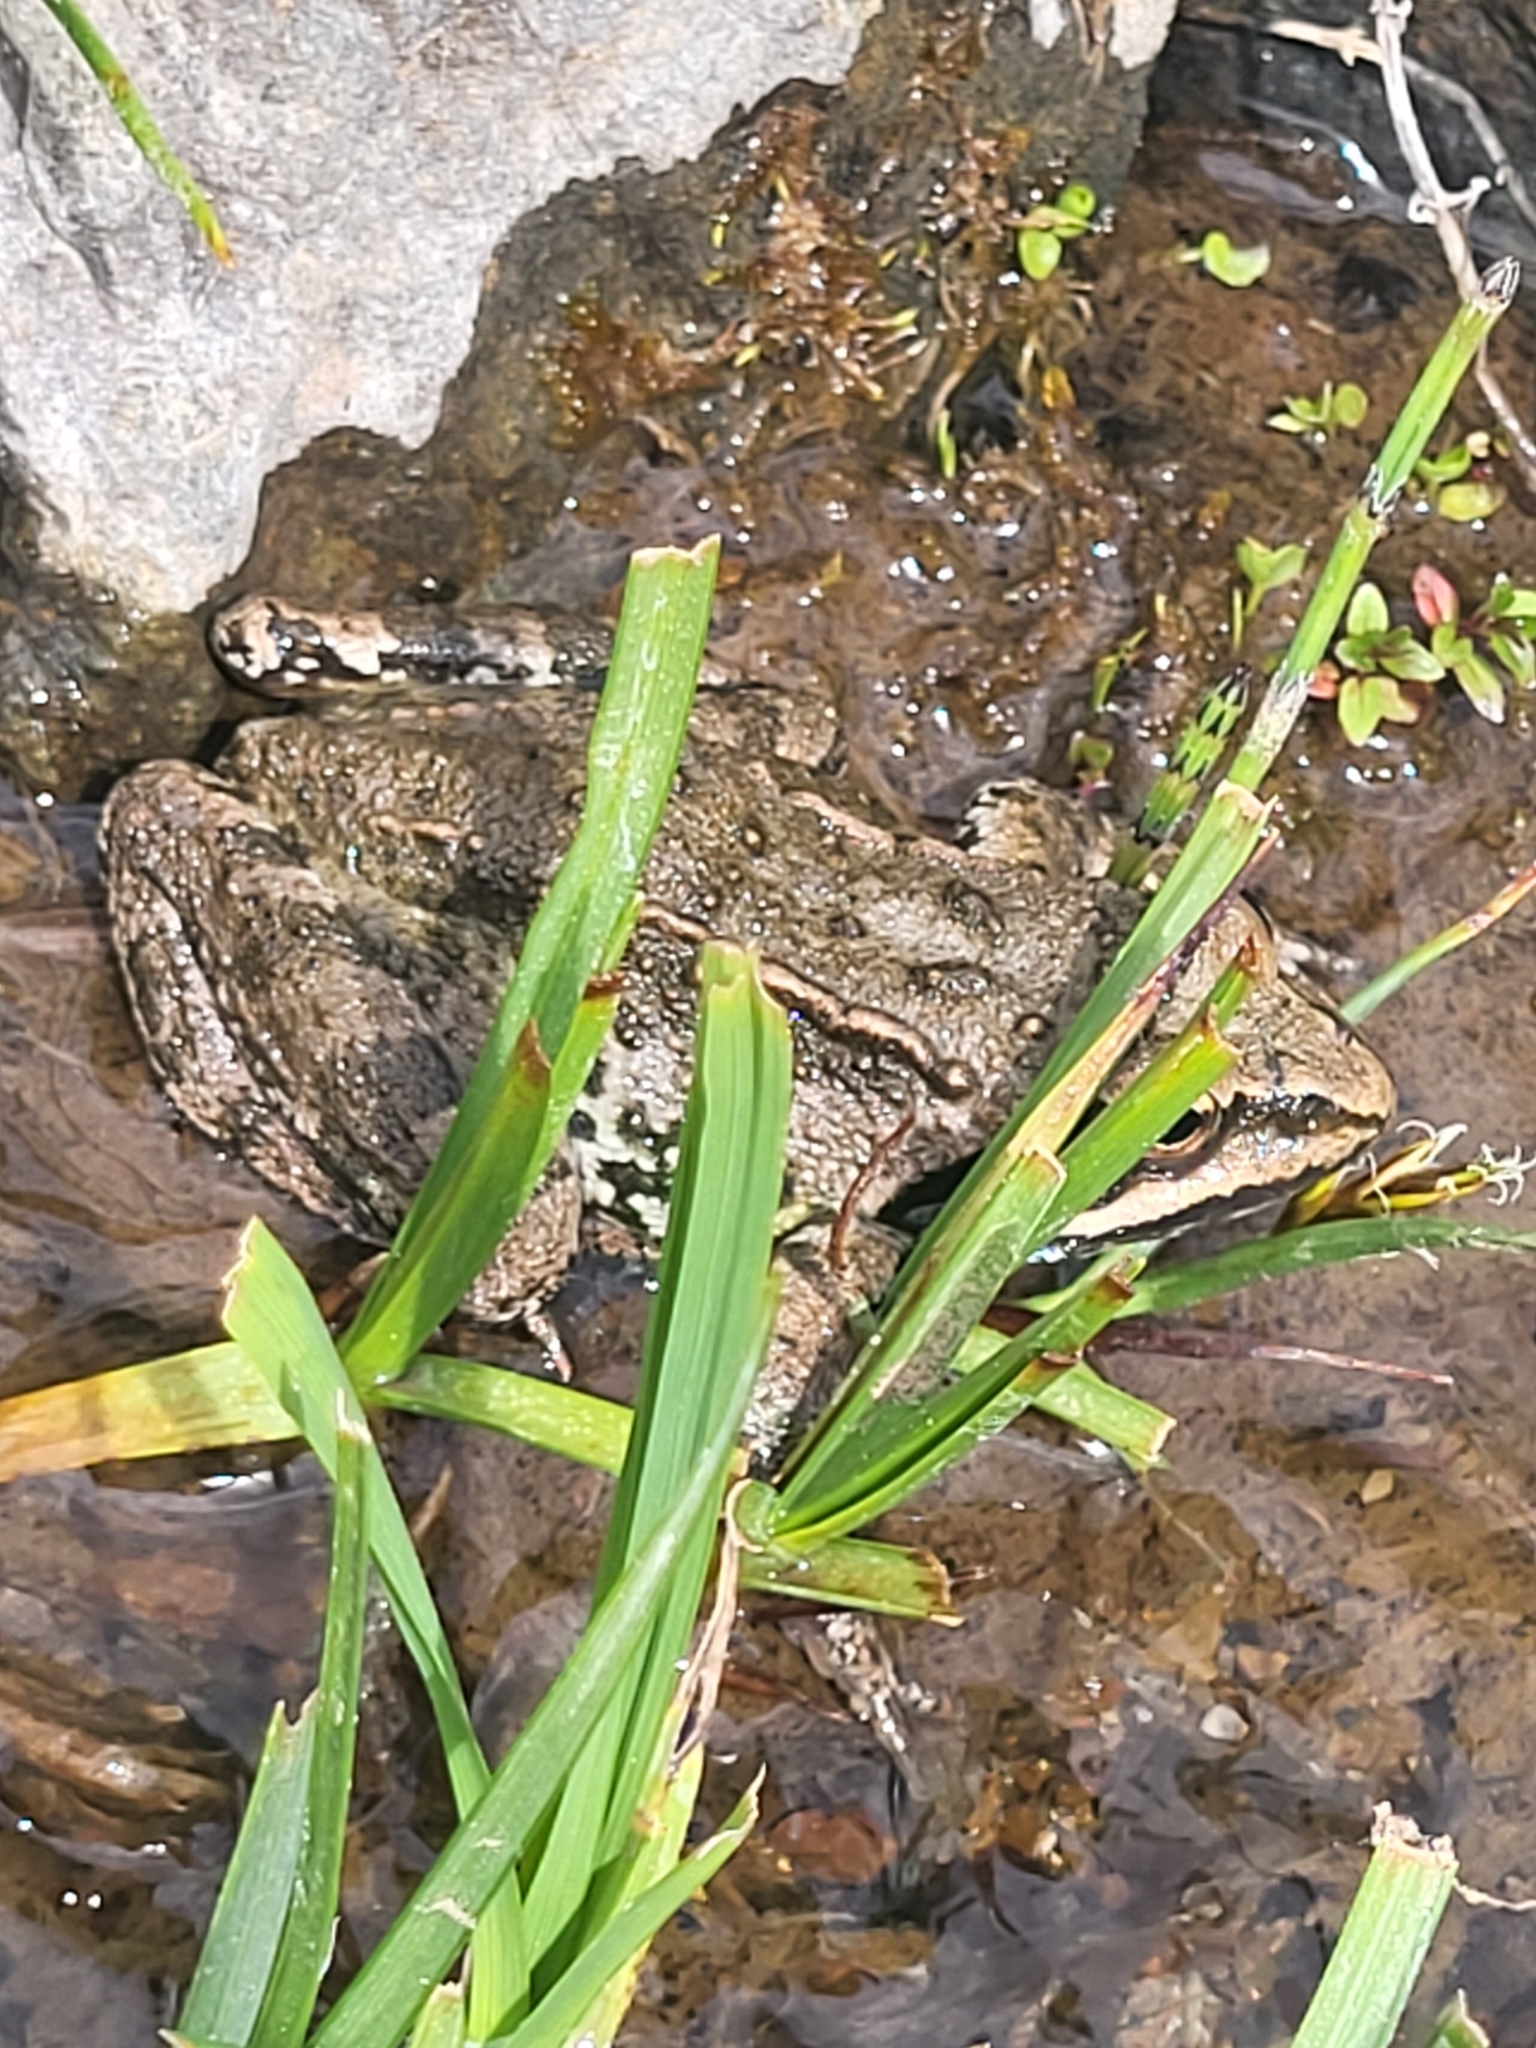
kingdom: Animalia
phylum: Chordata
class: Amphibia
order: Anura
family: Ranidae
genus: Rana
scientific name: Rana macrocnemis
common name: Banded frog
